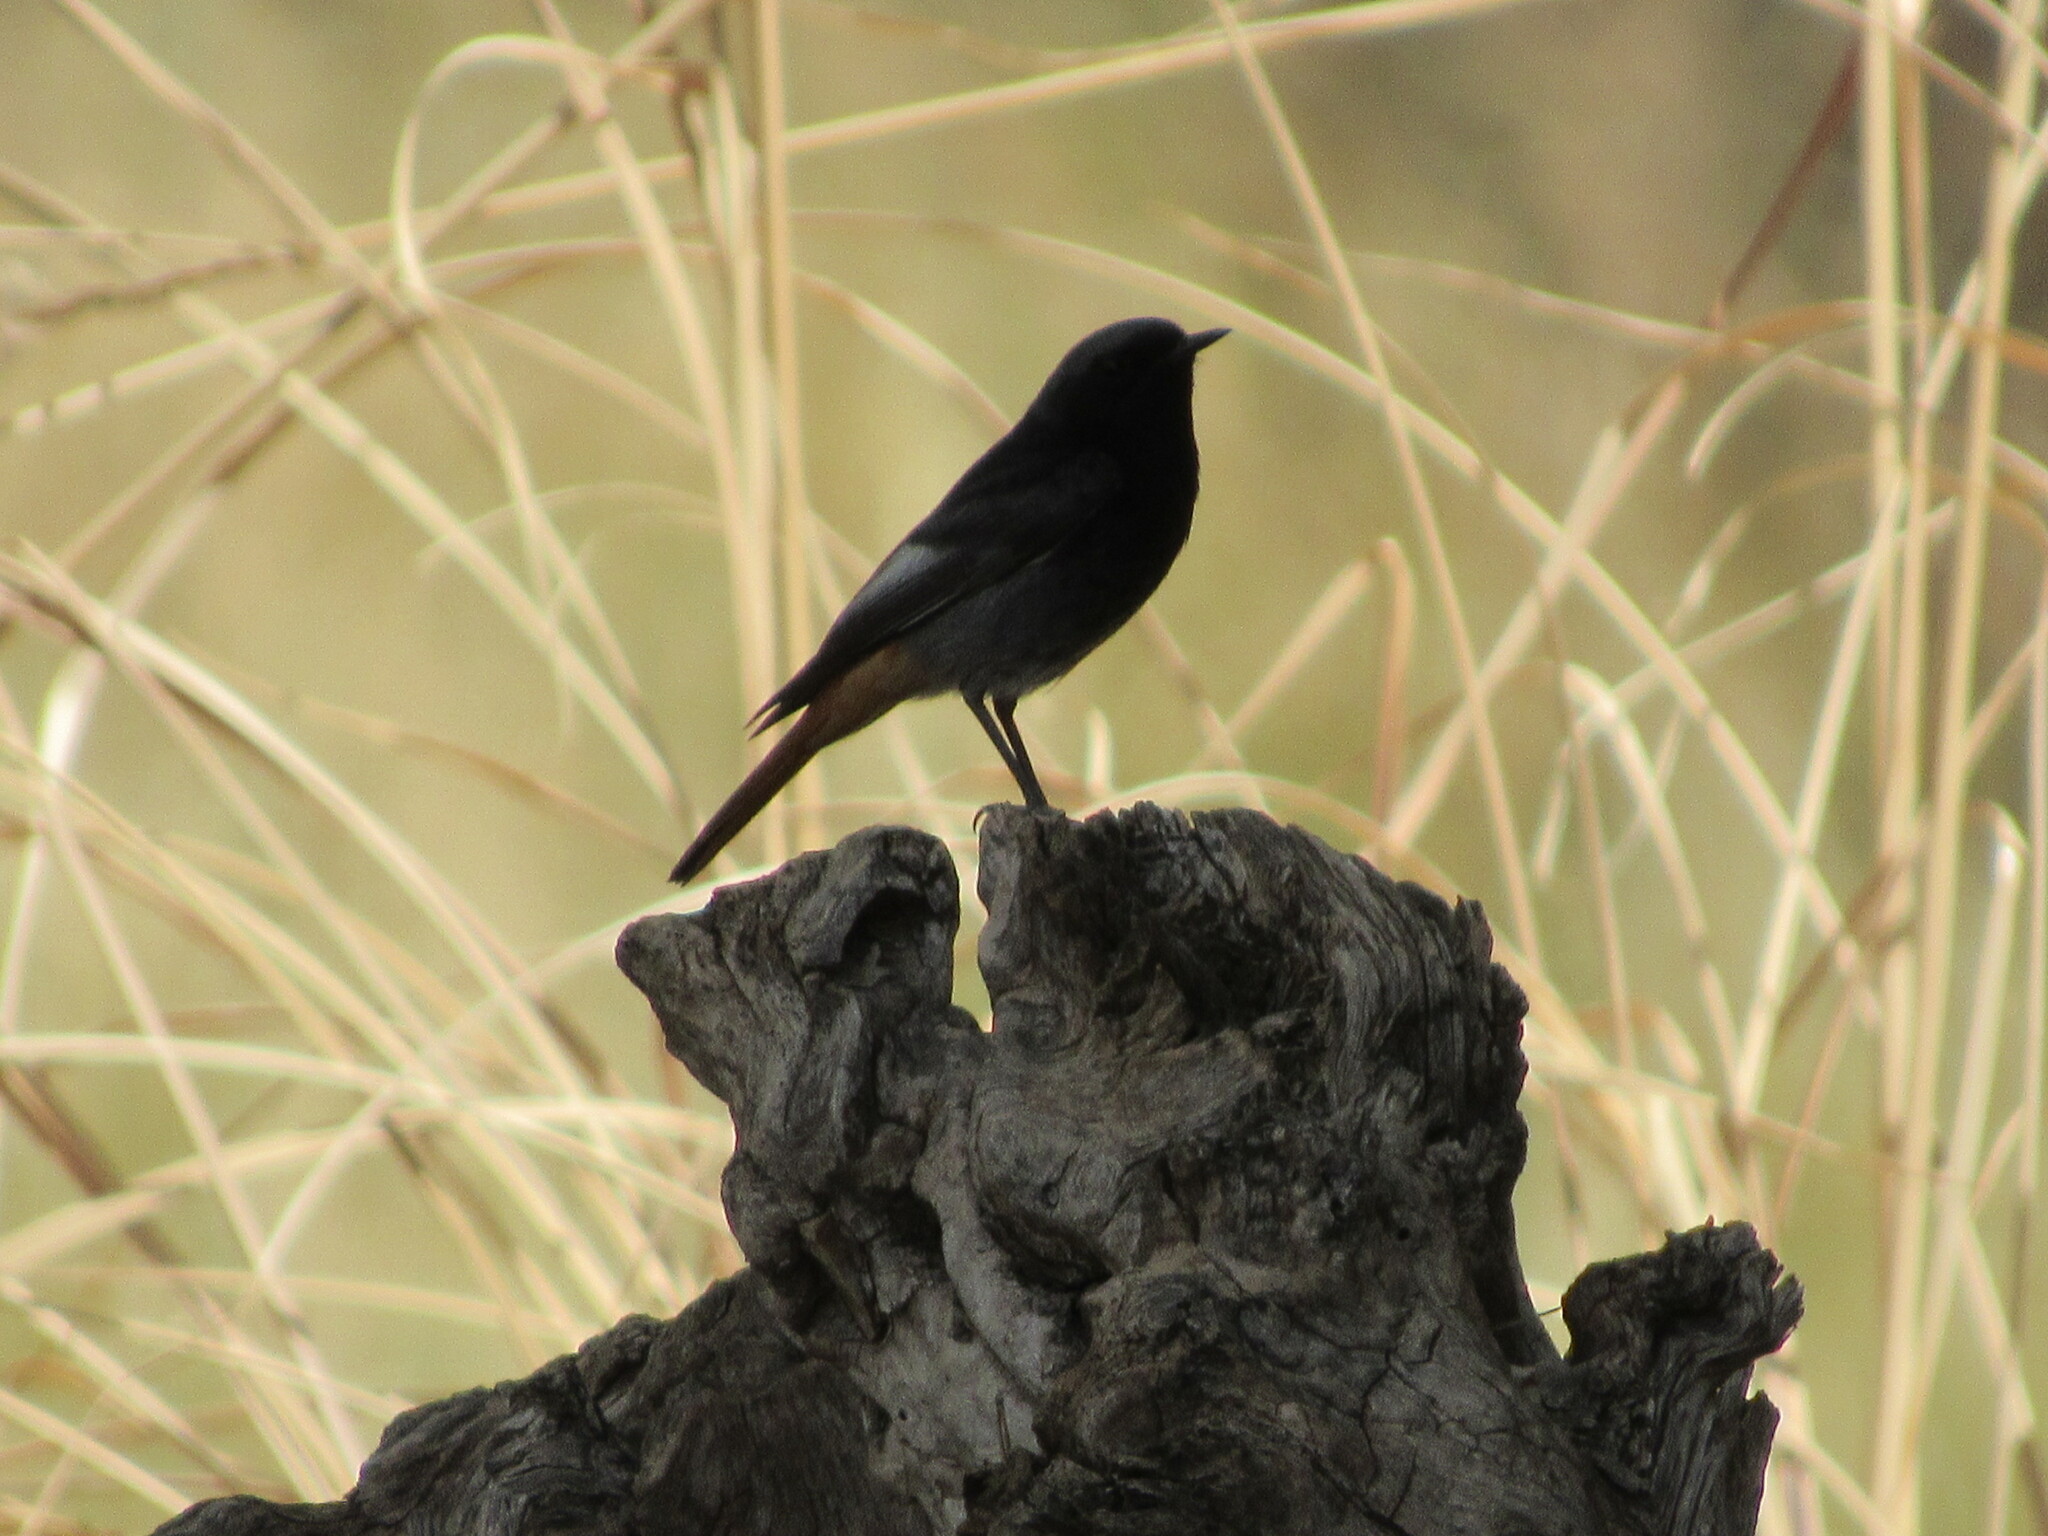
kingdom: Animalia
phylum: Chordata
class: Aves
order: Passeriformes
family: Muscicapidae
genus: Phoenicurus
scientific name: Phoenicurus ochruros
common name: Black redstart
